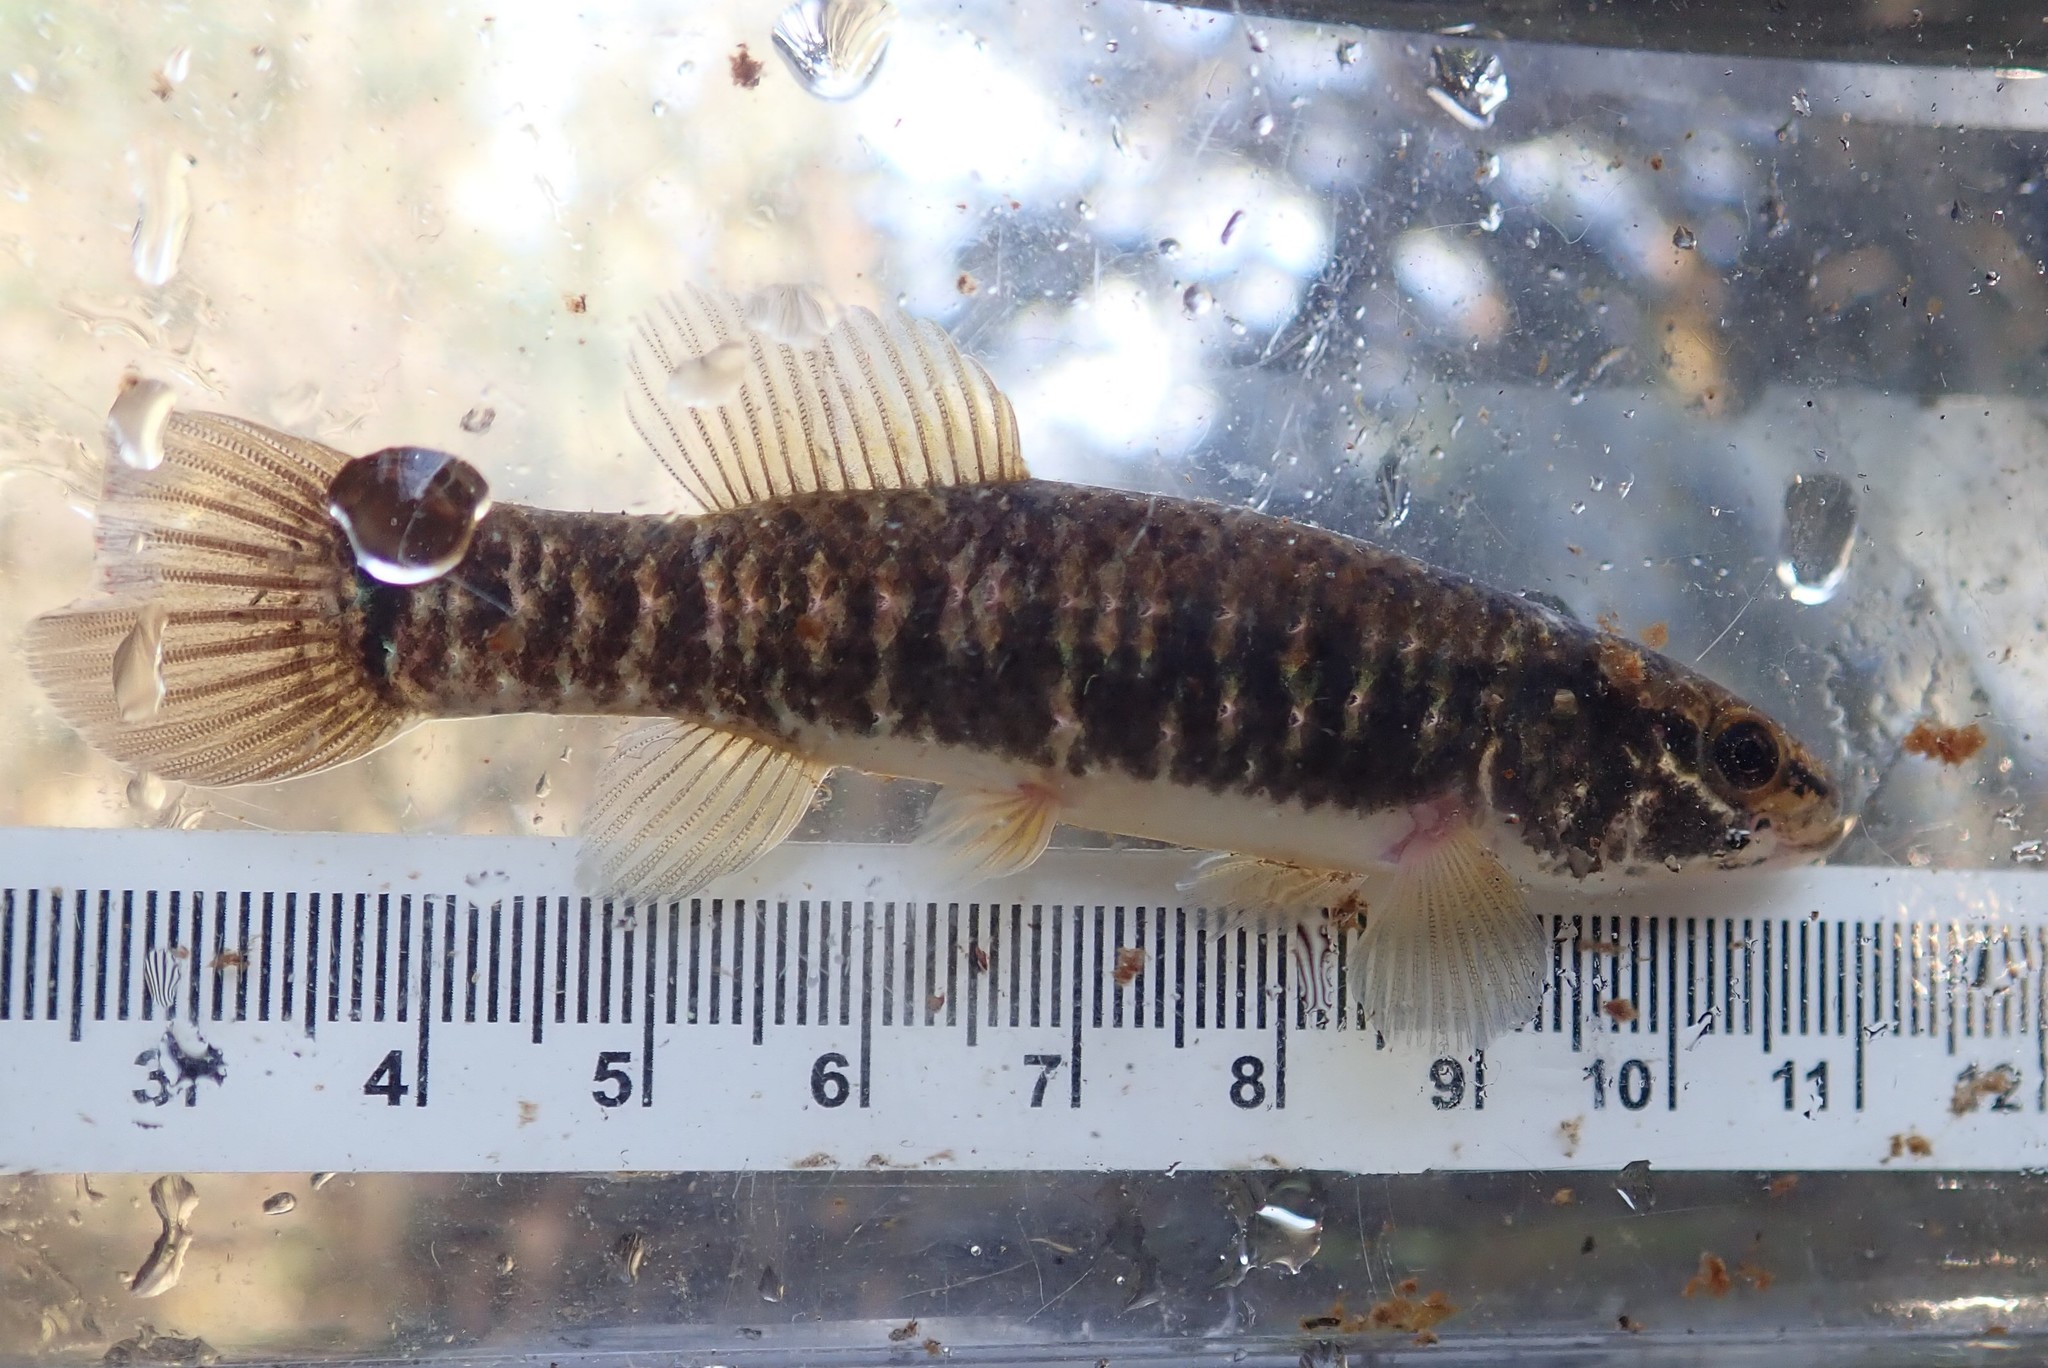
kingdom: Animalia
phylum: Chordata
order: Esociformes
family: Umbridae
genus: Umbra
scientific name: Umbra limi
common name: Central mudminnow
